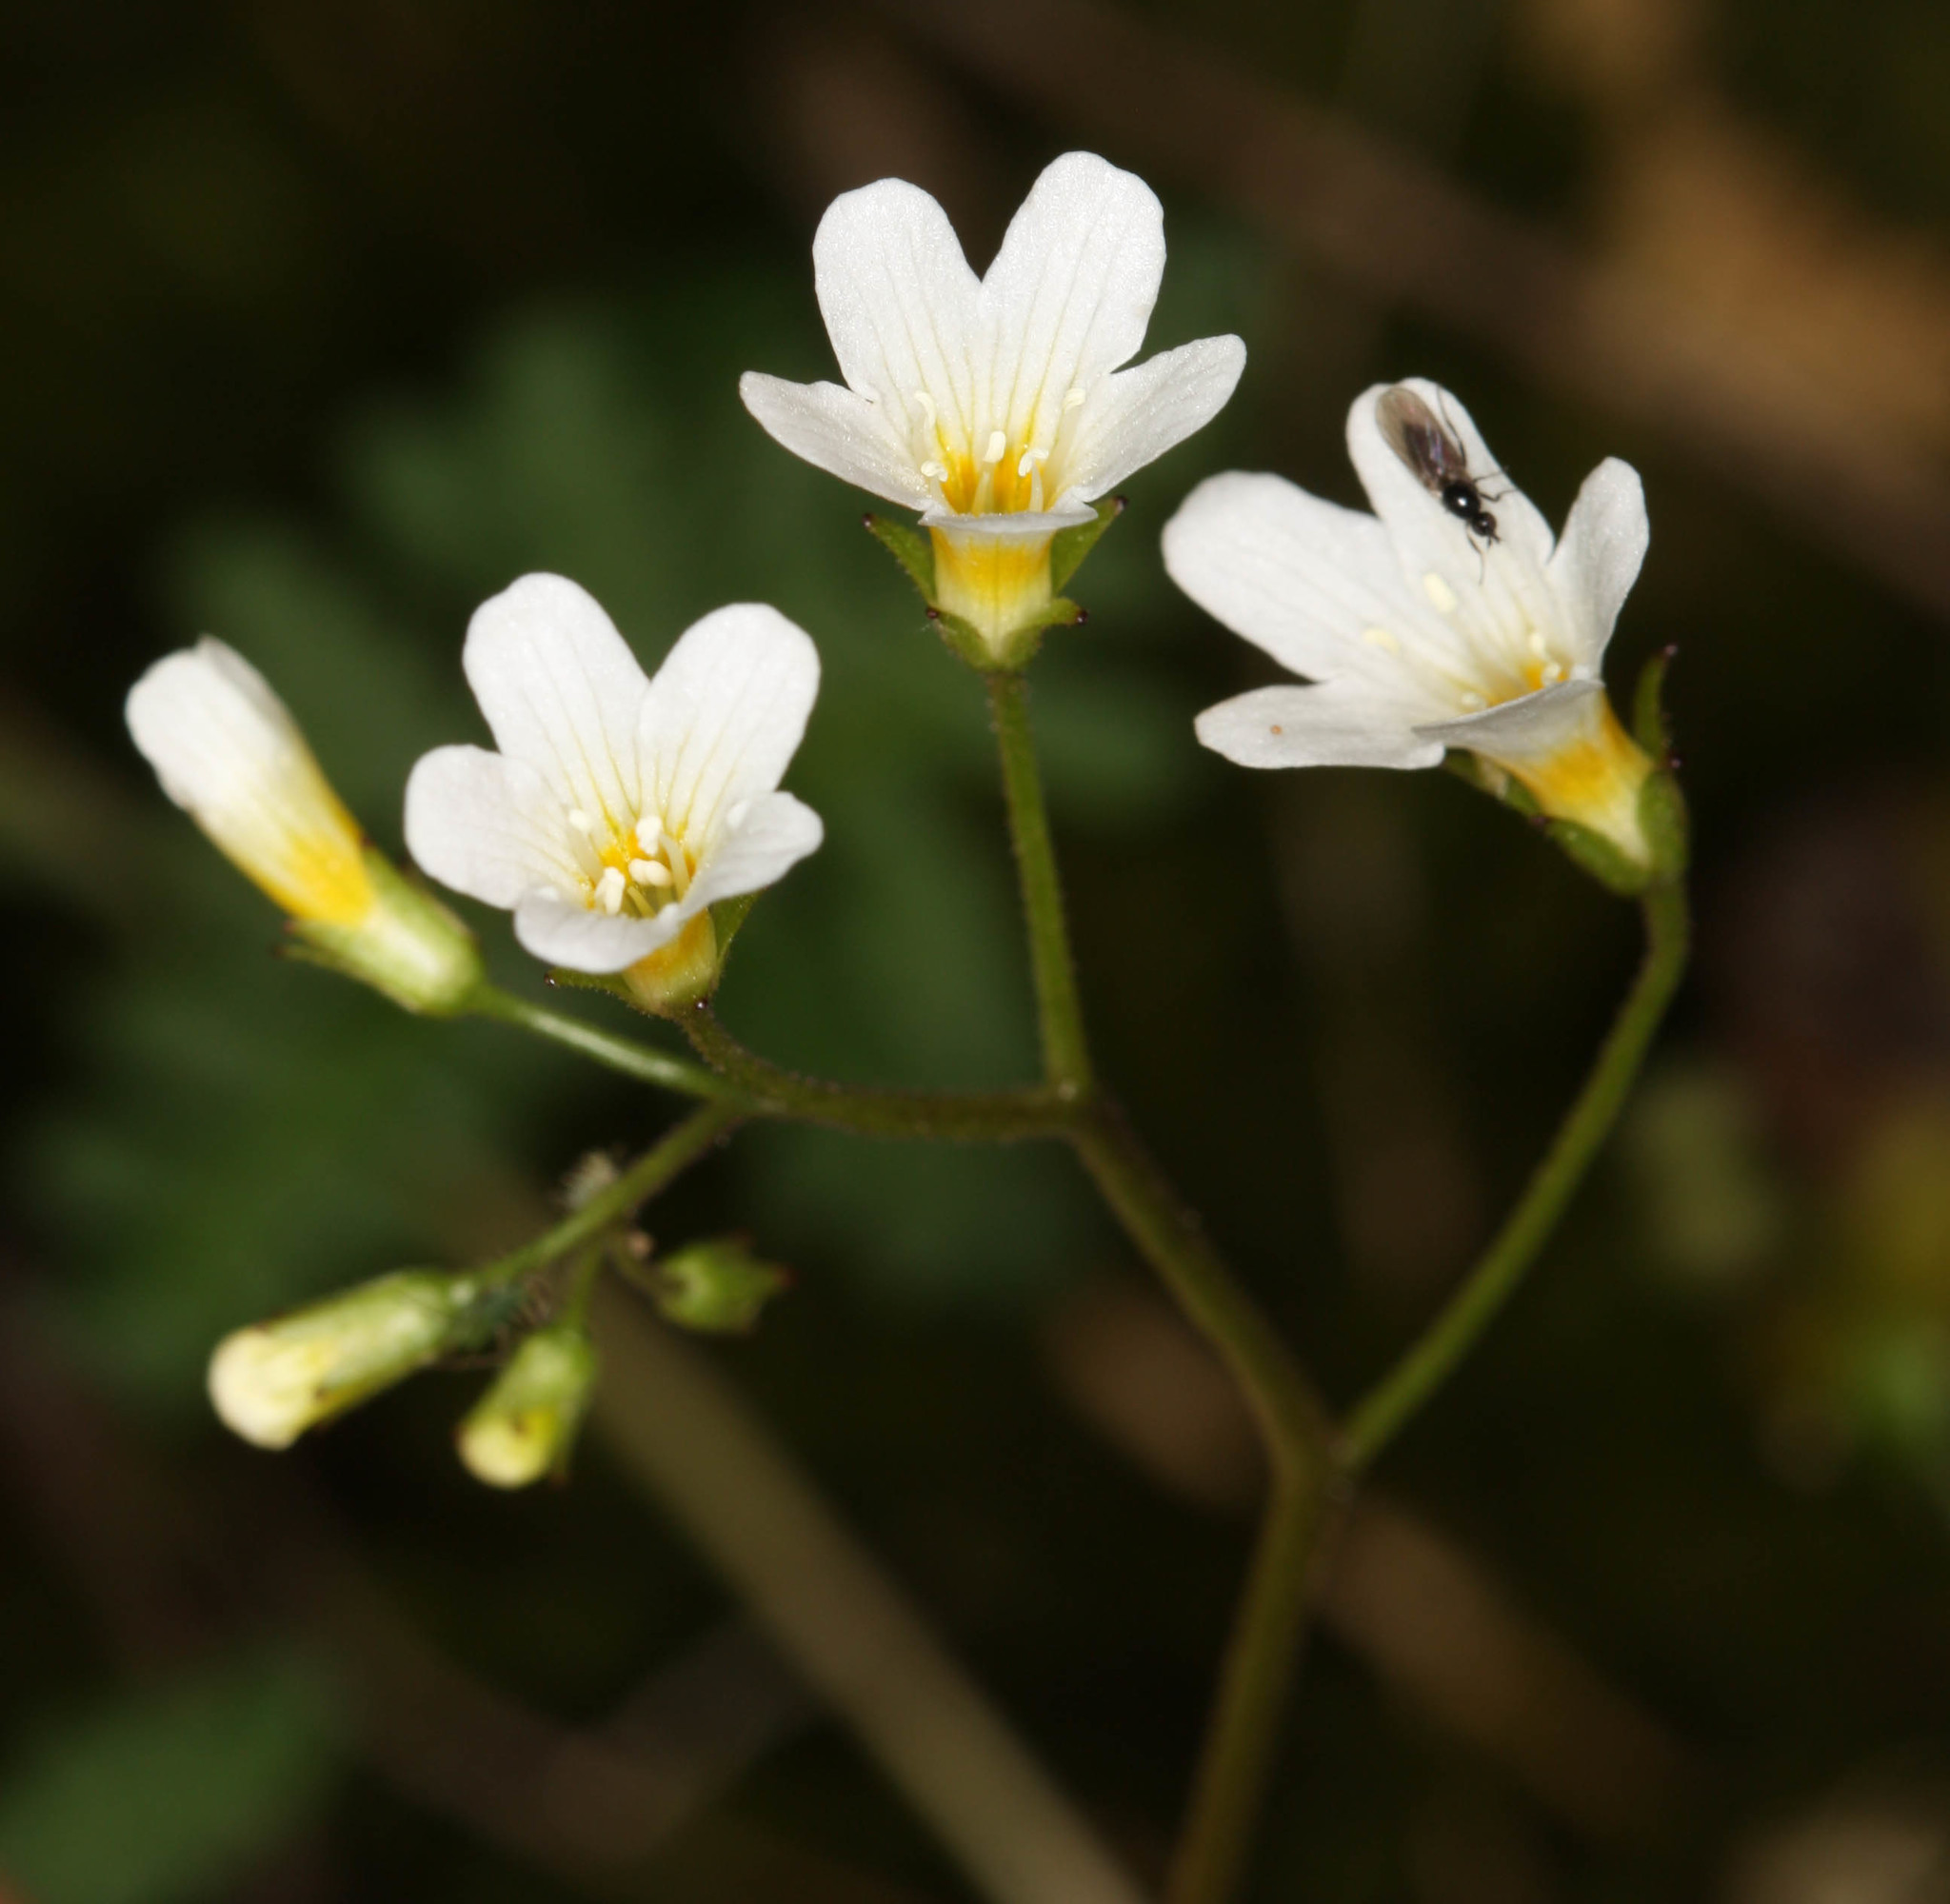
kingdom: Plantae
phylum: Tracheophyta
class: Magnoliopsida
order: Boraginales
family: Hydrophyllaceae
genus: Romanzoffia
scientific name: Romanzoffia californica
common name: California mistmaiden
